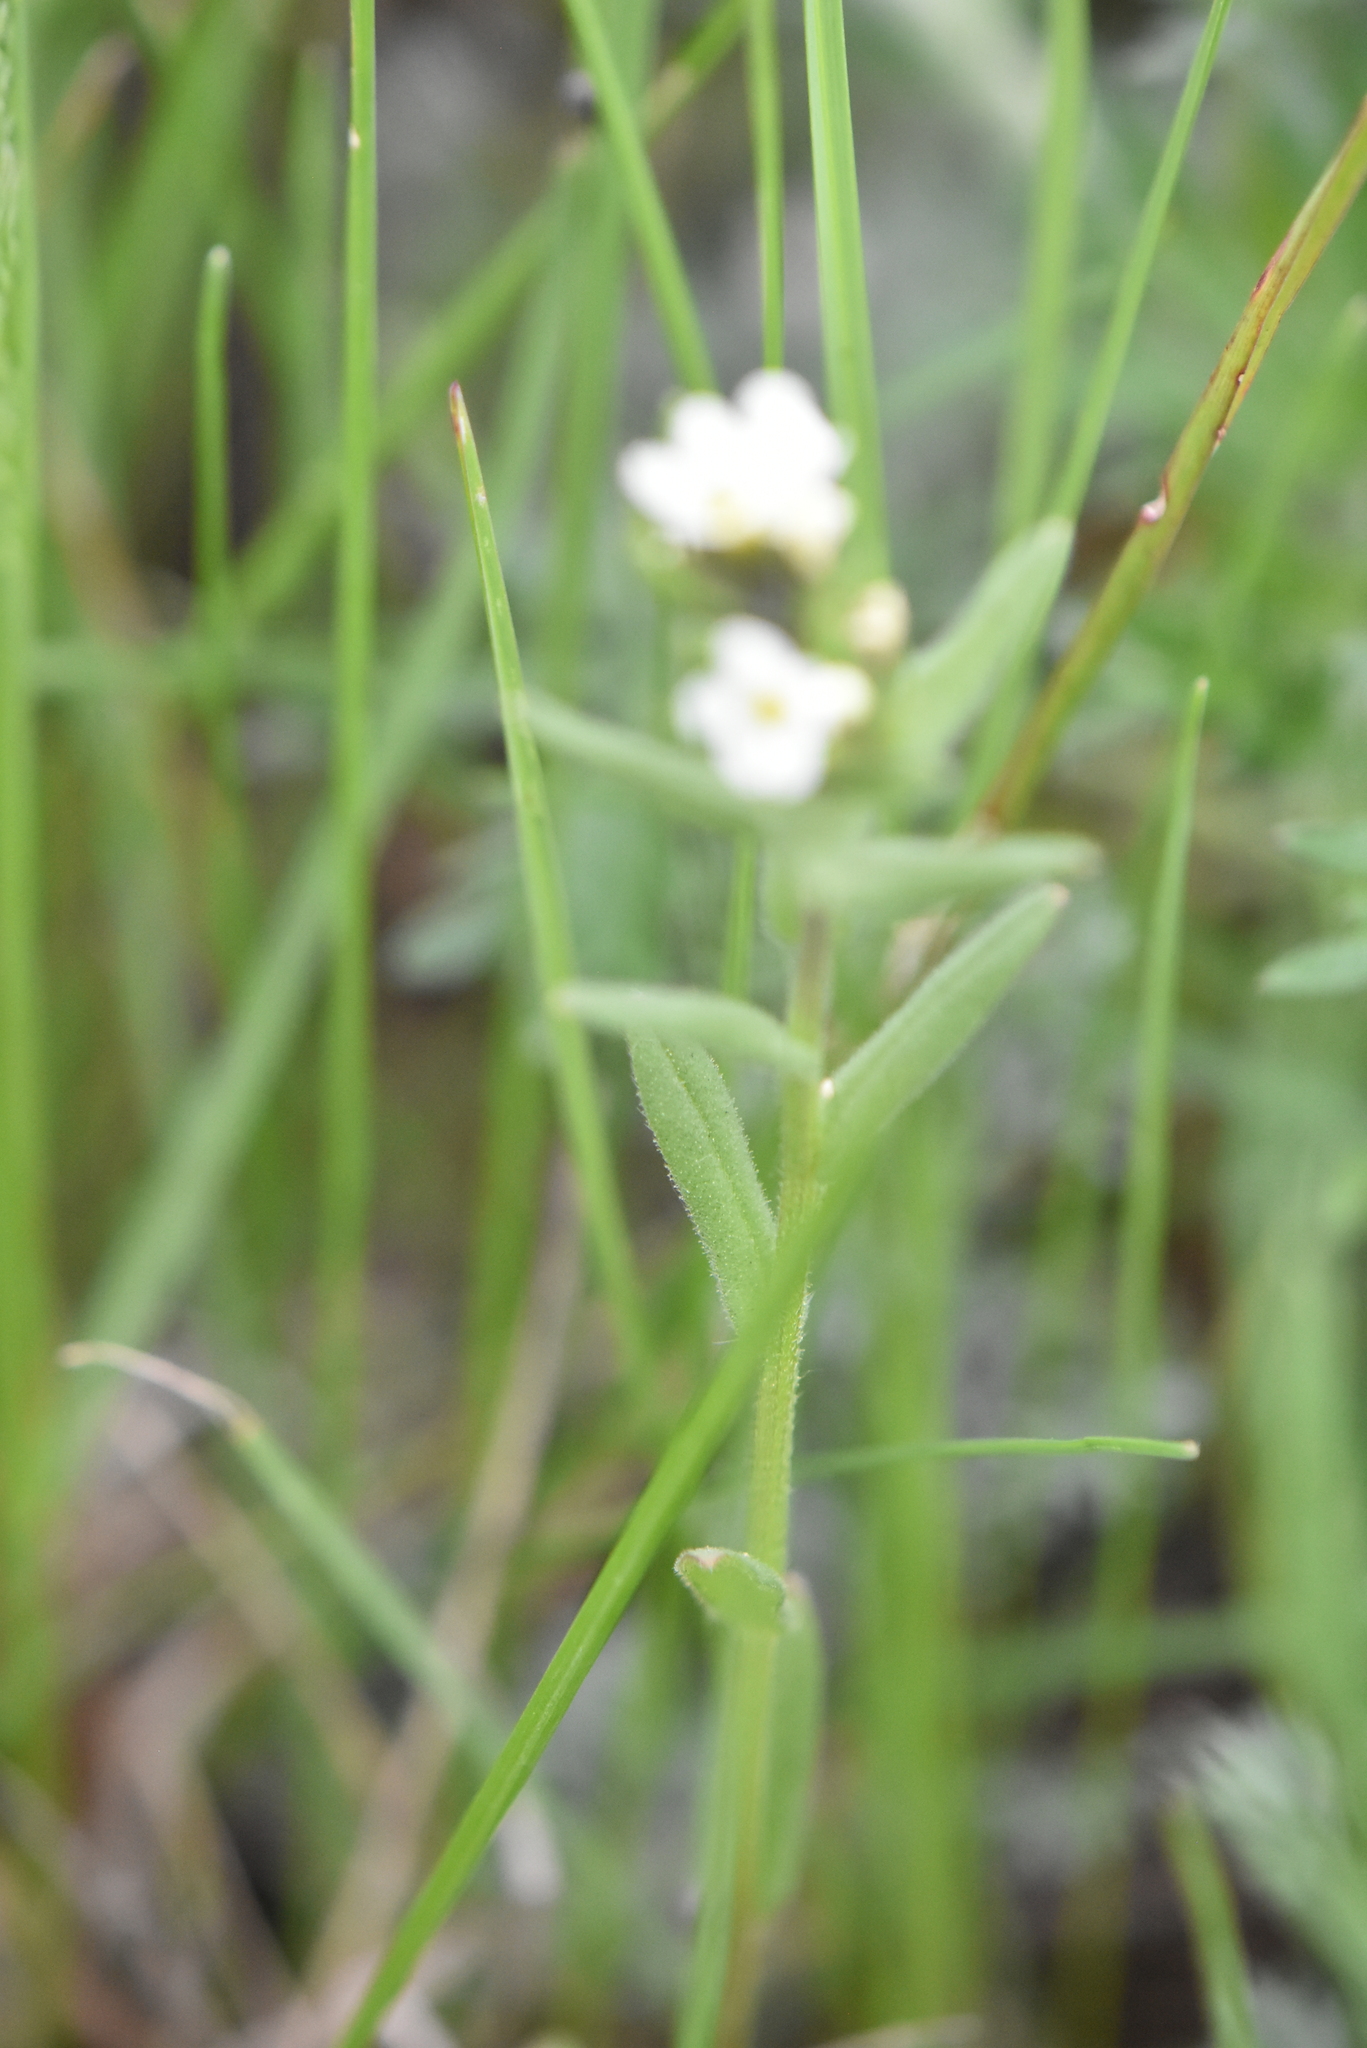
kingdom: Plantae
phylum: Tracheophyta
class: Magnoliopsida
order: Boraginales
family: Boraginaceae
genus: Buglossoides
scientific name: Buglossoides arvensis
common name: Corn gromwell
